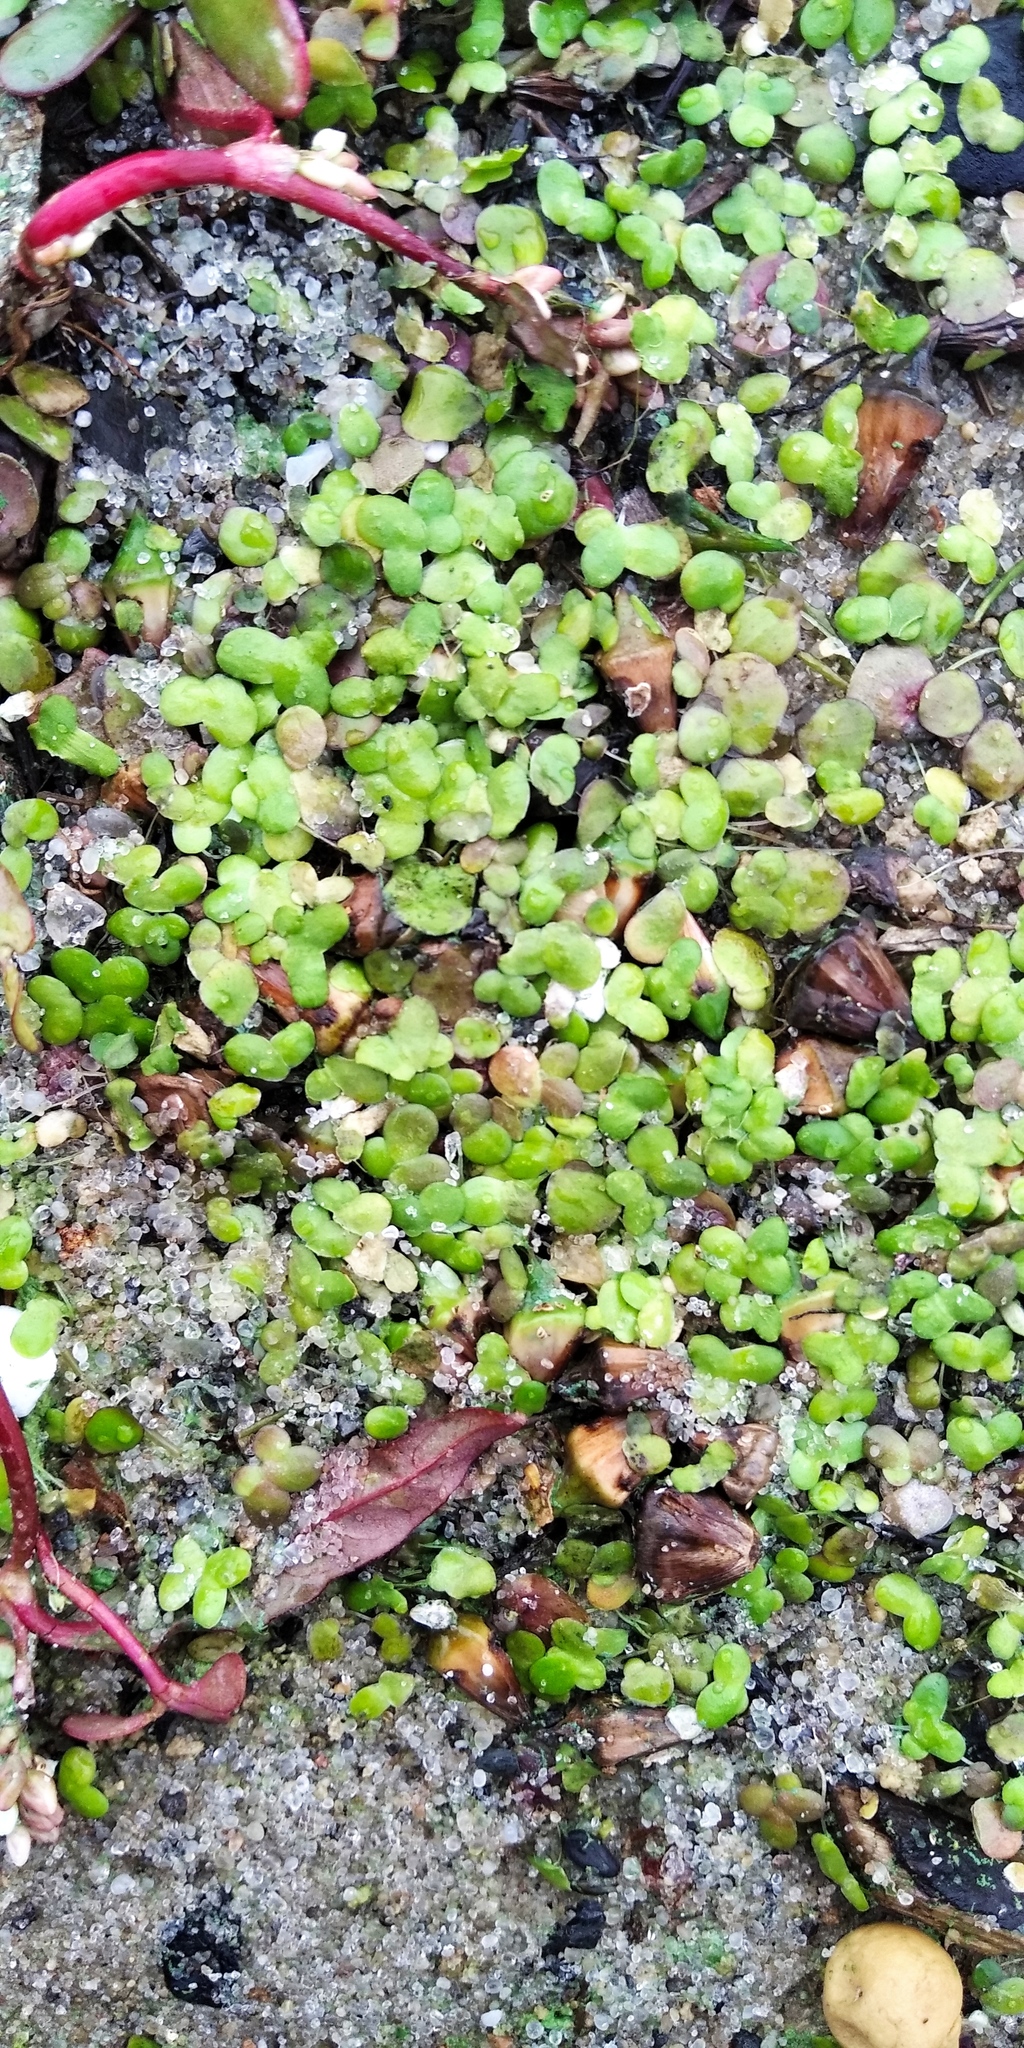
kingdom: Plantae
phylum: Tracheophyta
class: Liliopsida
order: Alismatales
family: Araceae
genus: Lemna
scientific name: Lemna minor
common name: Common duckweed
